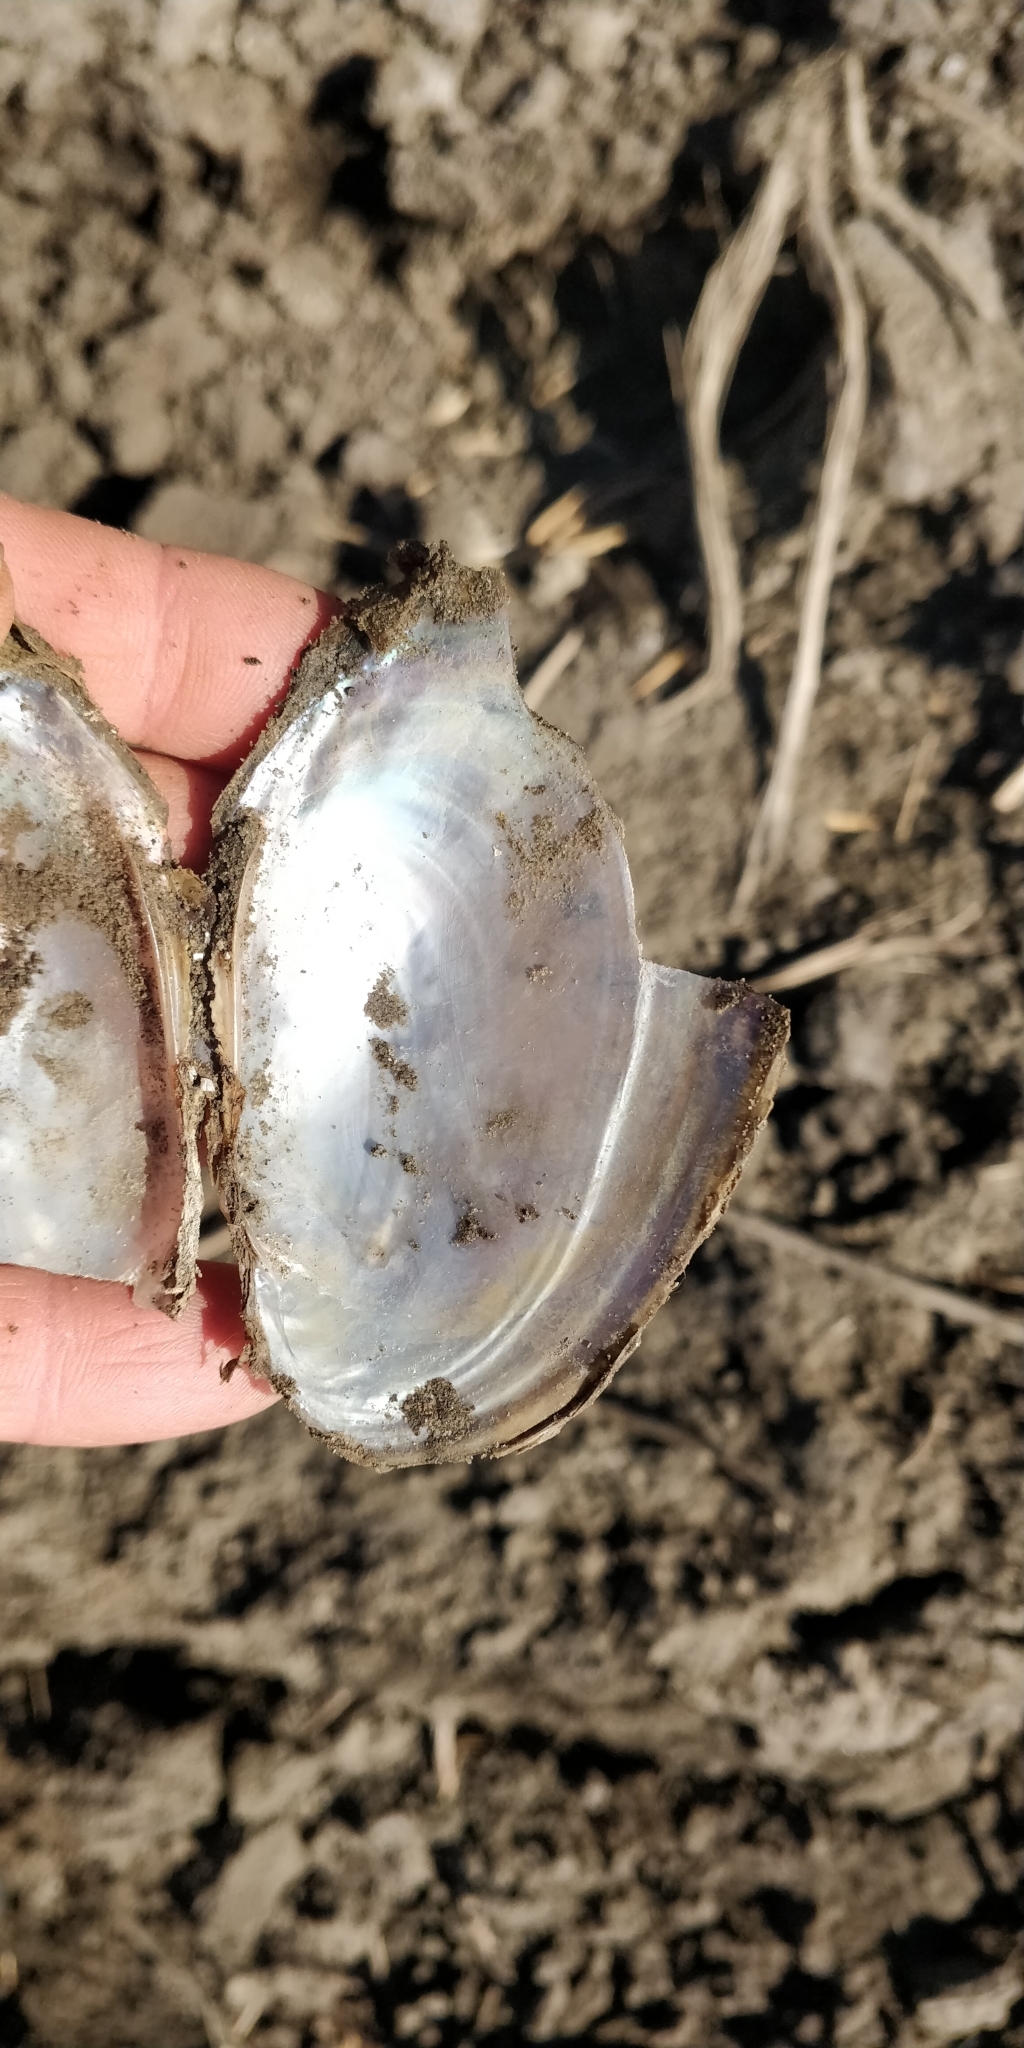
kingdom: Animalia
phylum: Mollusca
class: Bivalvia
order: Unionida
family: Unionidae
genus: Potamilus
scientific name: Potamilus fragilis
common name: Fragile papershell
